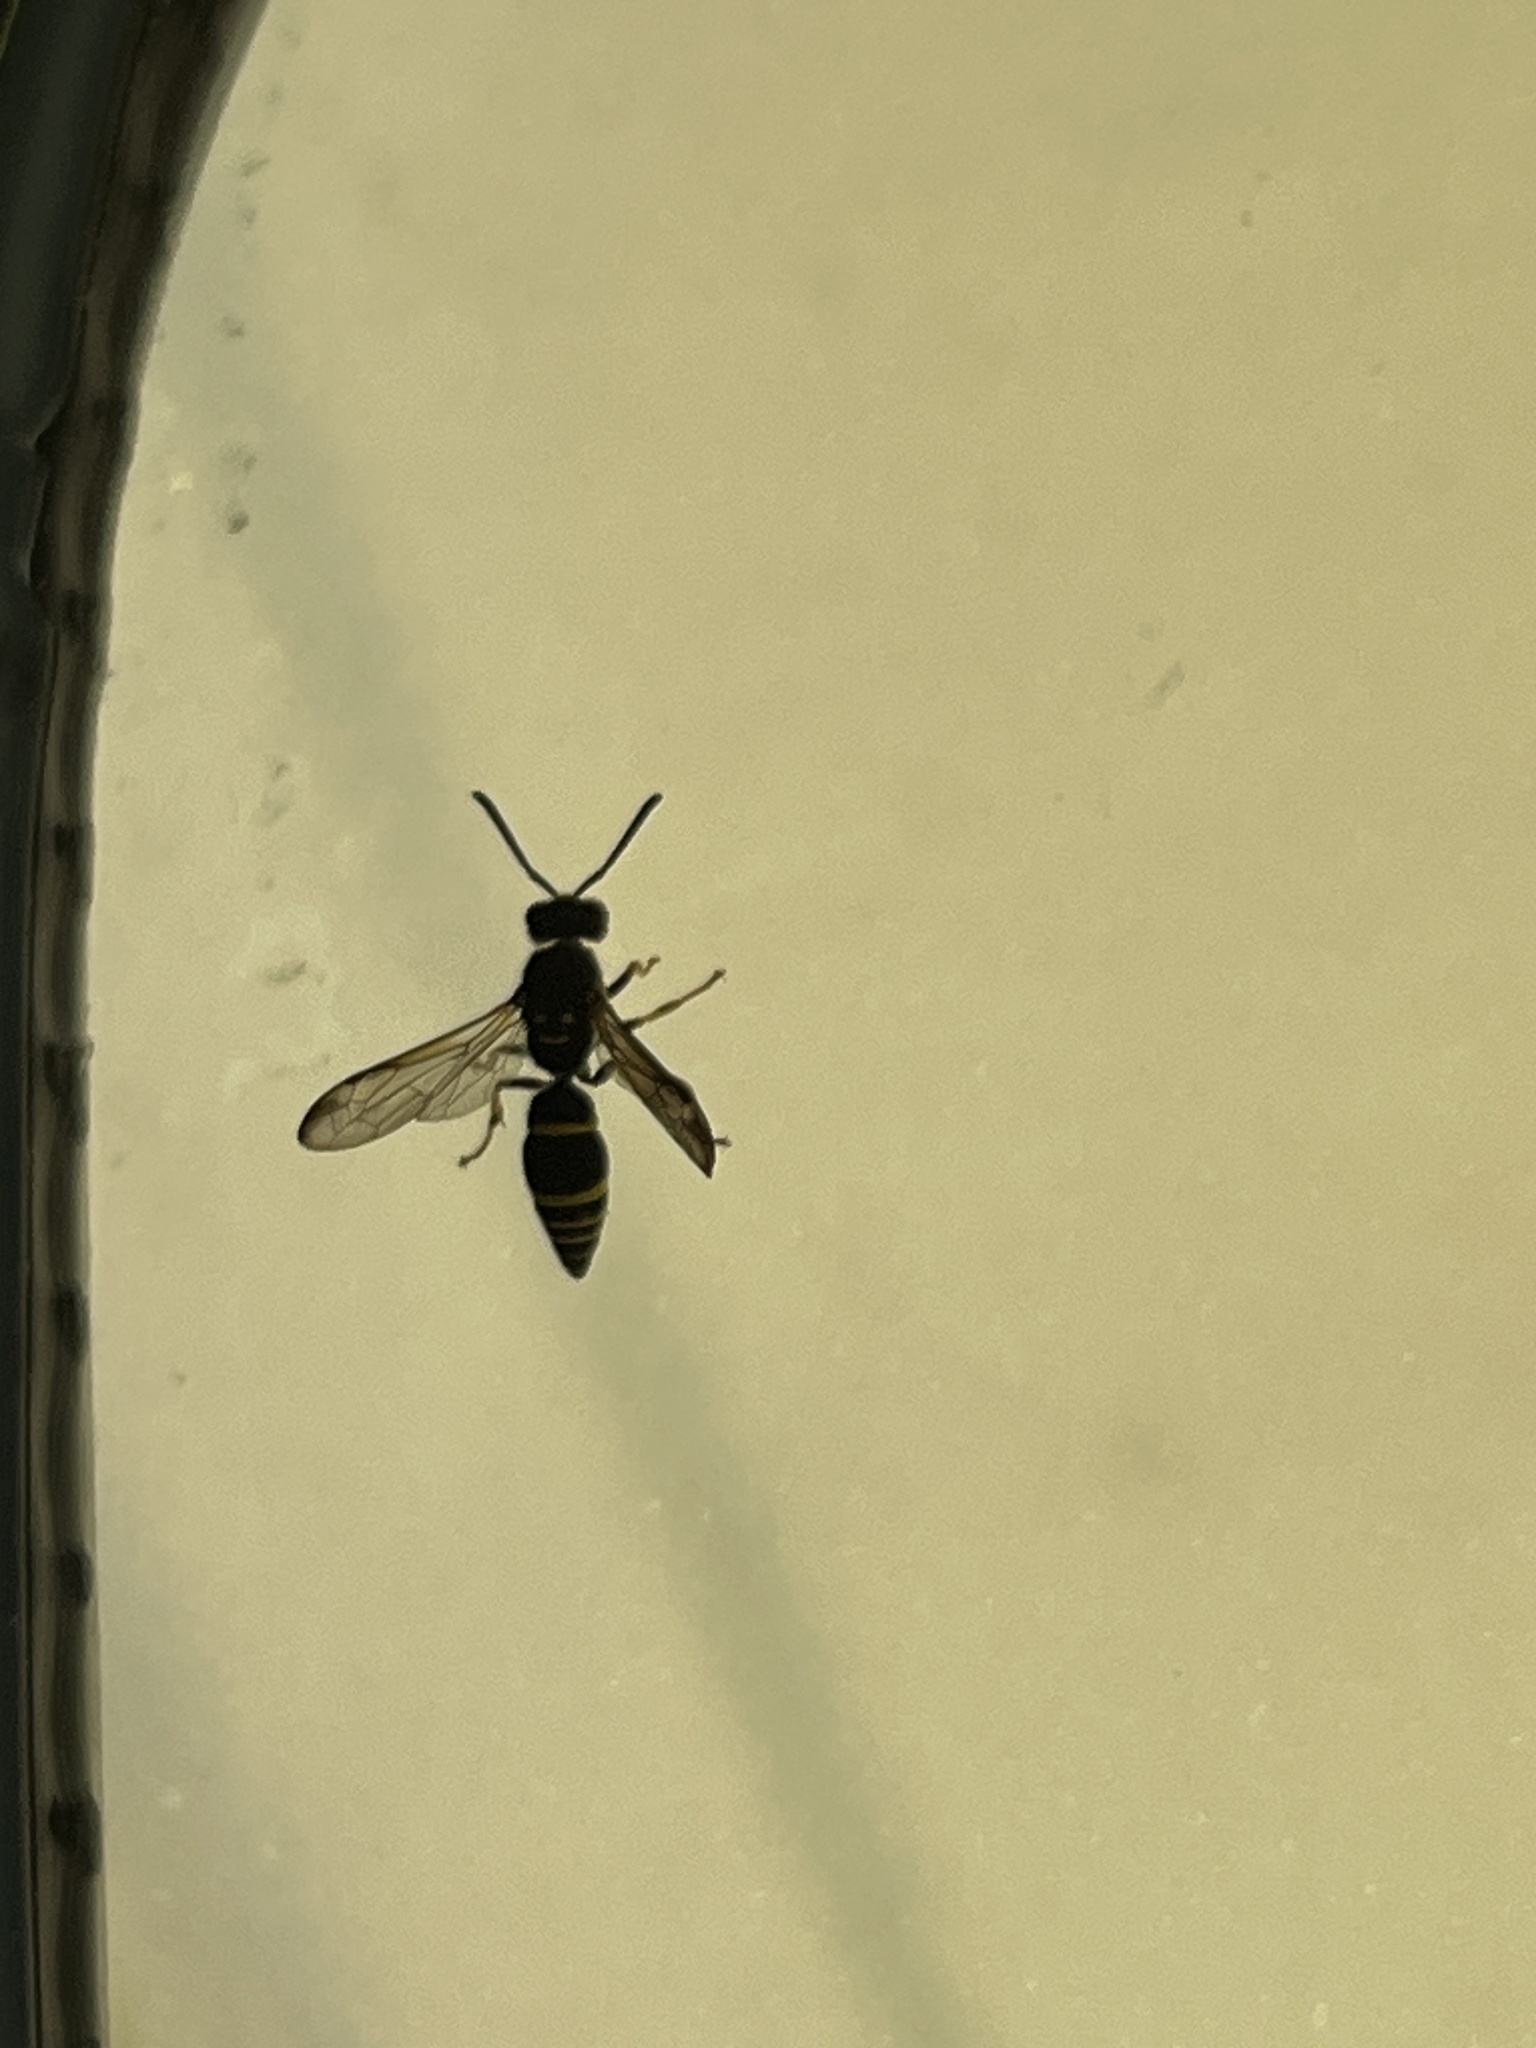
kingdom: Animalia
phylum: Arthropoda
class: Insecta
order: Hymenoptera
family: Vespidae
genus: Ancistrocerus
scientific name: Ancistrocerus adiabatus
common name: Bramble mason wasp
